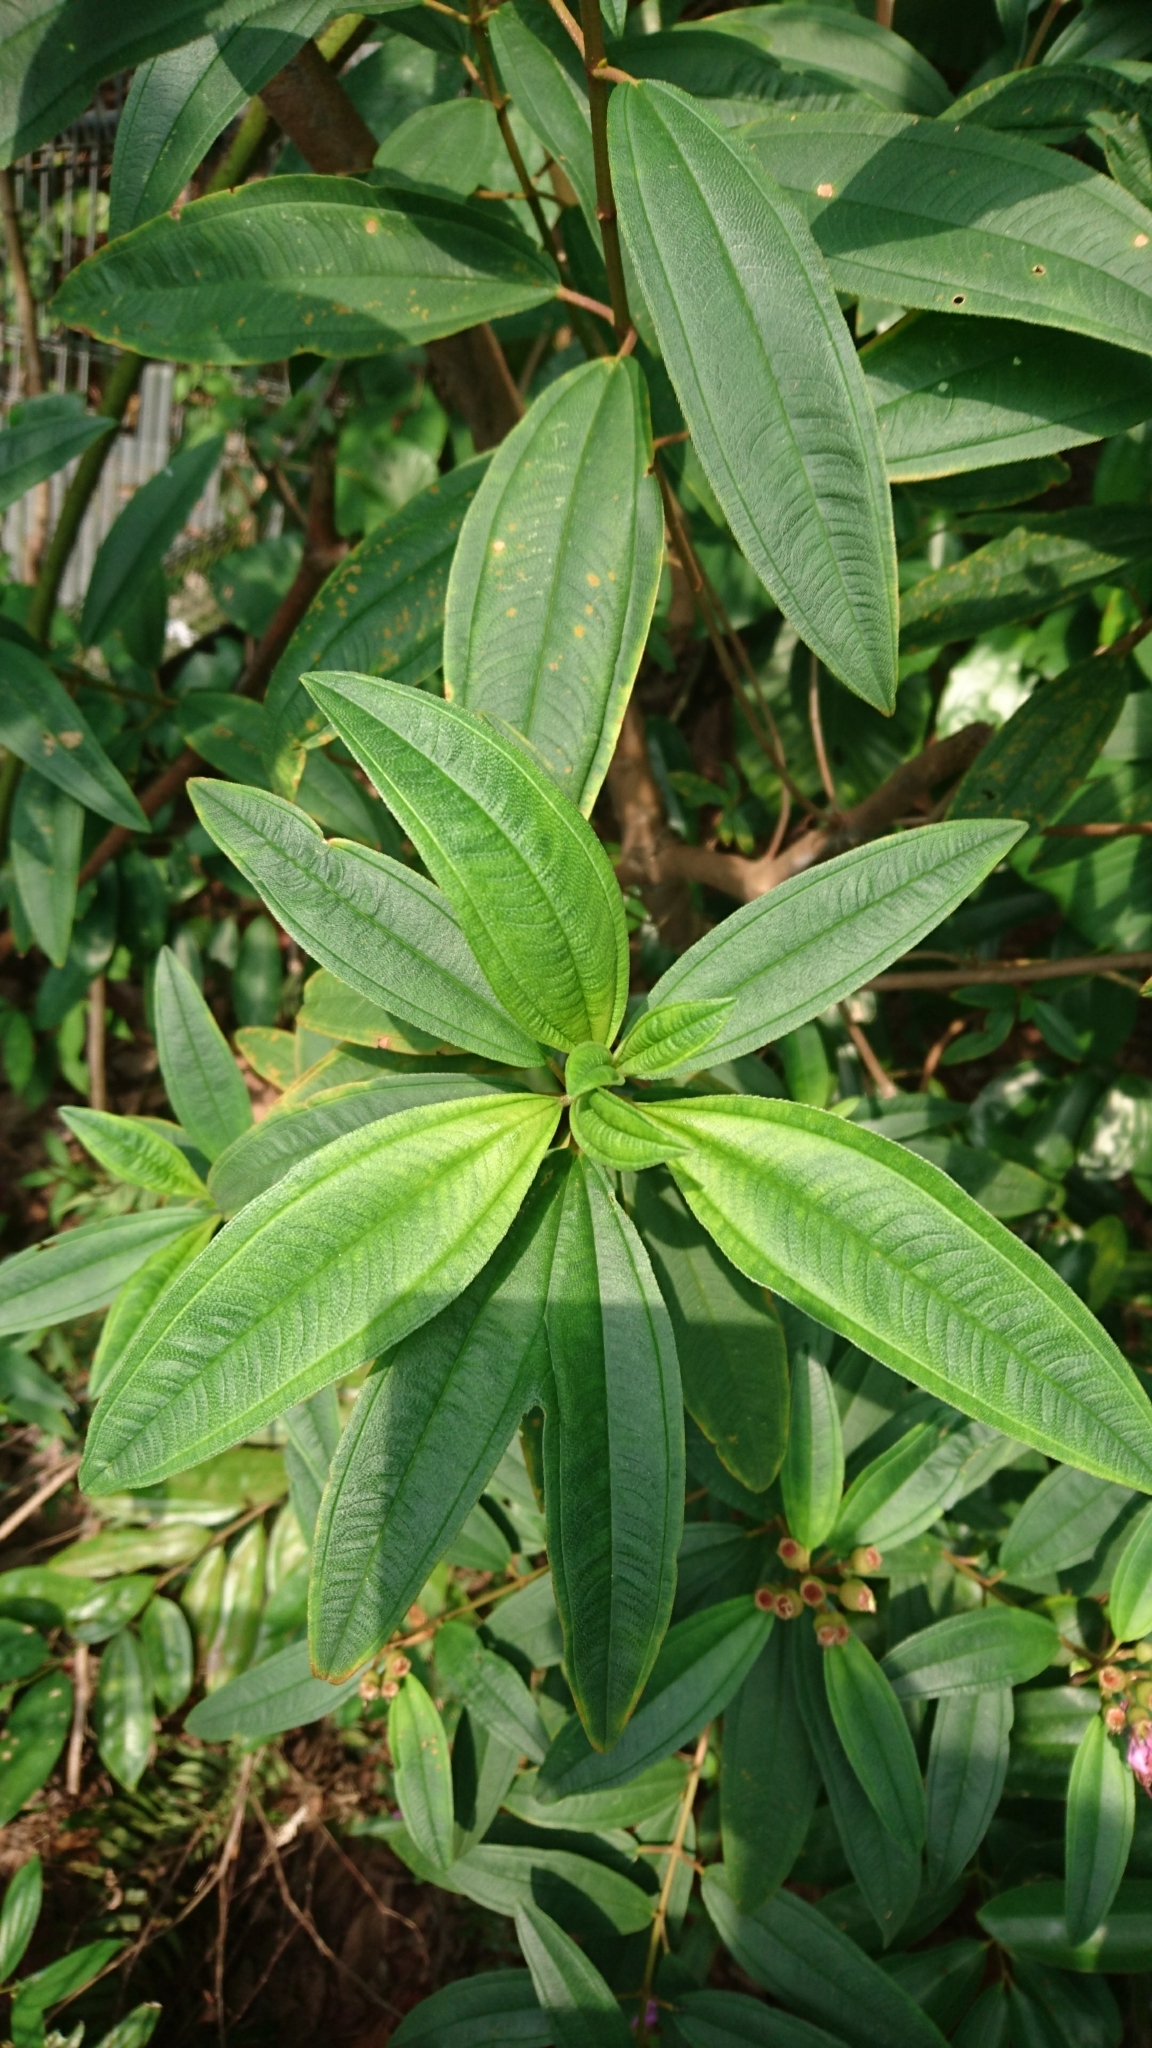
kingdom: Plantae
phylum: Tracheophyta
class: Magnoliopsida
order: Myrtales
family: Melastomataceae
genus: Melastoma
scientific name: Melastoma malabathricum
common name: Indian-rhododendron
